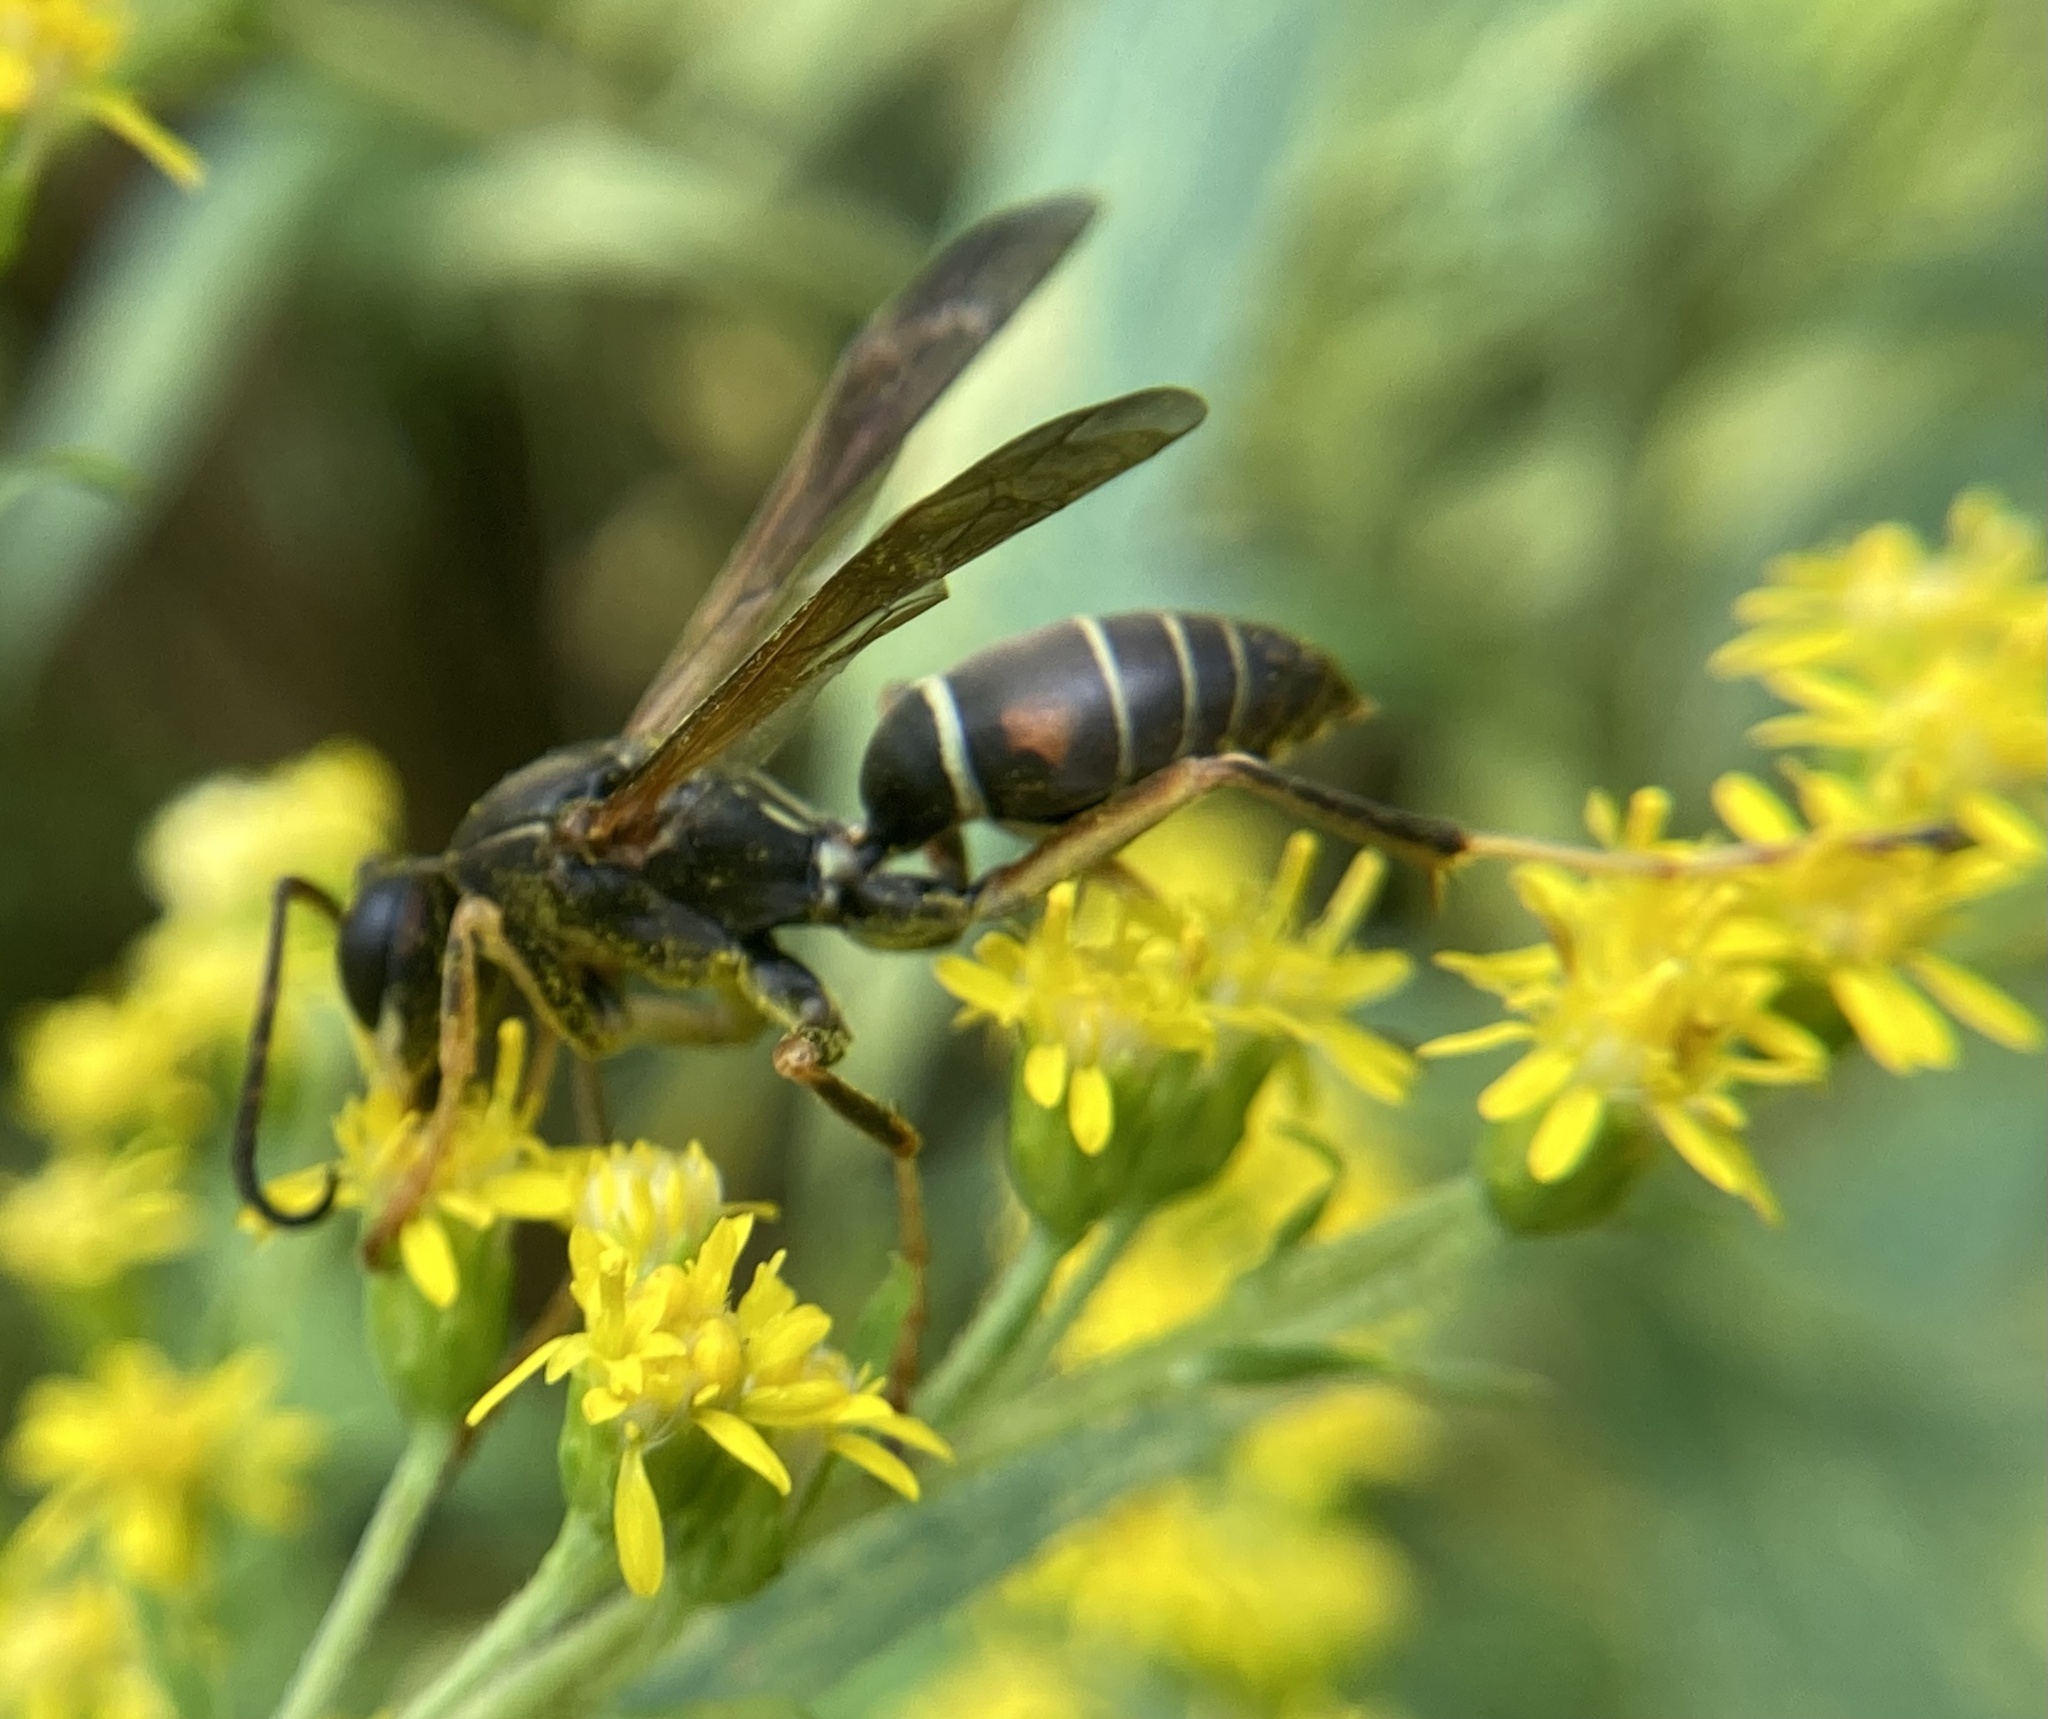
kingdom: Animalia
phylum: Arthropoda
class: Insecta
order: Hymenoptera
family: Eumenidae
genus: Polistes
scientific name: Polistes fuscatus
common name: Dark paper wasp
